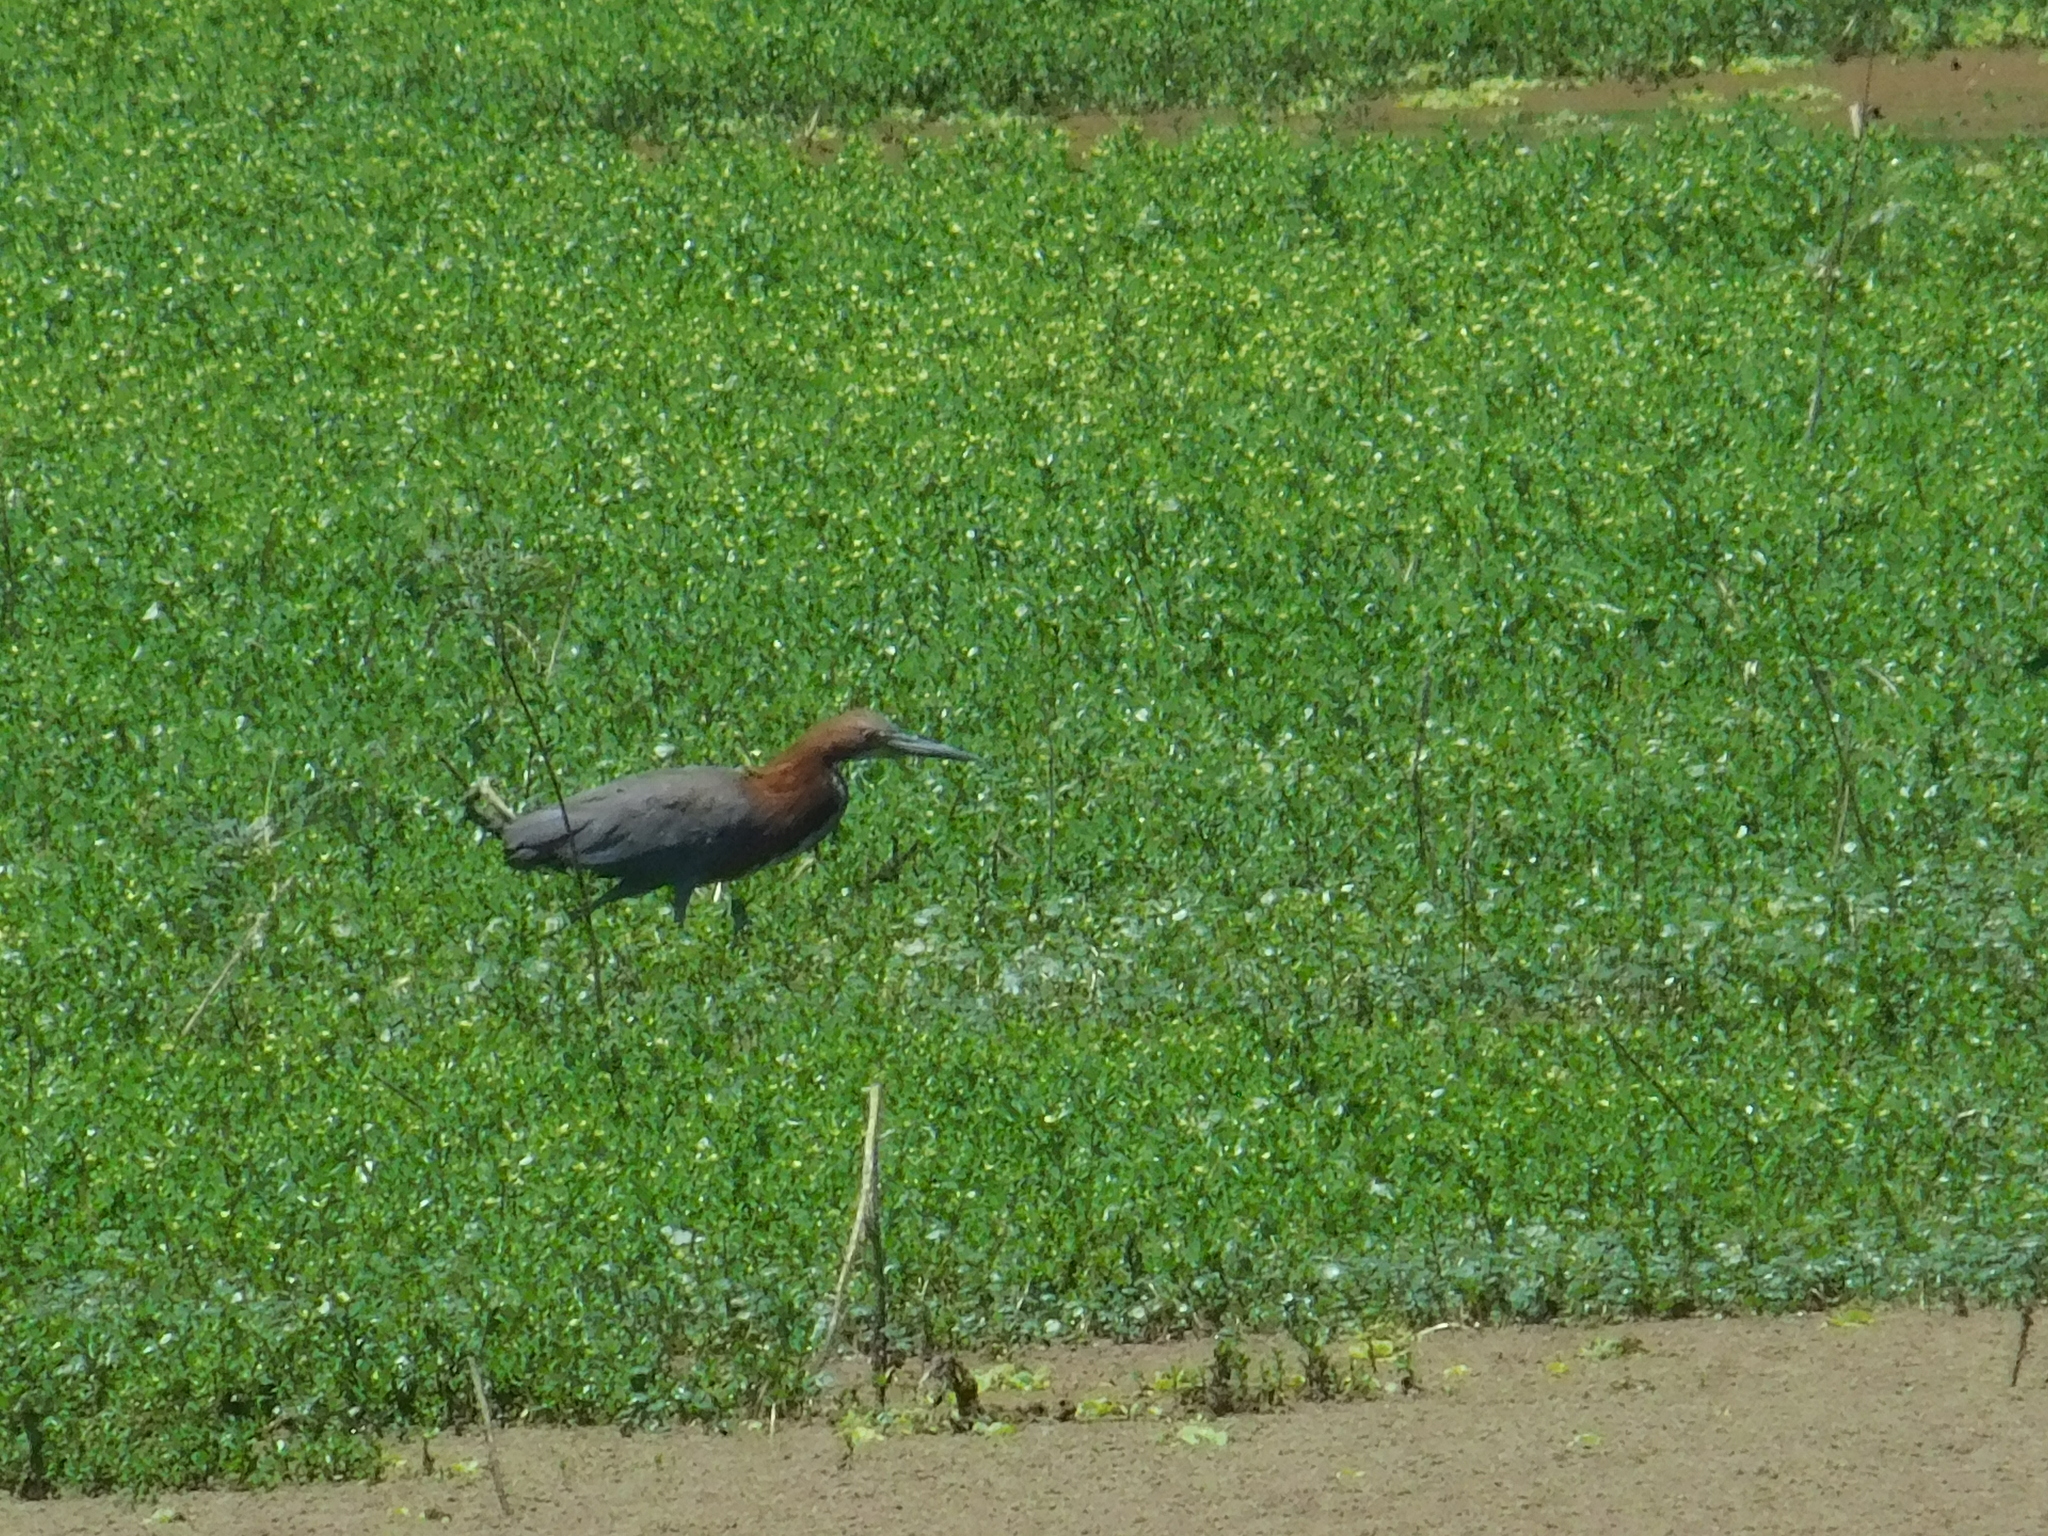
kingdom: Animalia
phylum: Chordata
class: Aves
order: Pelecaniformes
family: Ardeidae
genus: Tigrisoma
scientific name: Tigrisoma lineatum
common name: Rufescent tiger-heron
